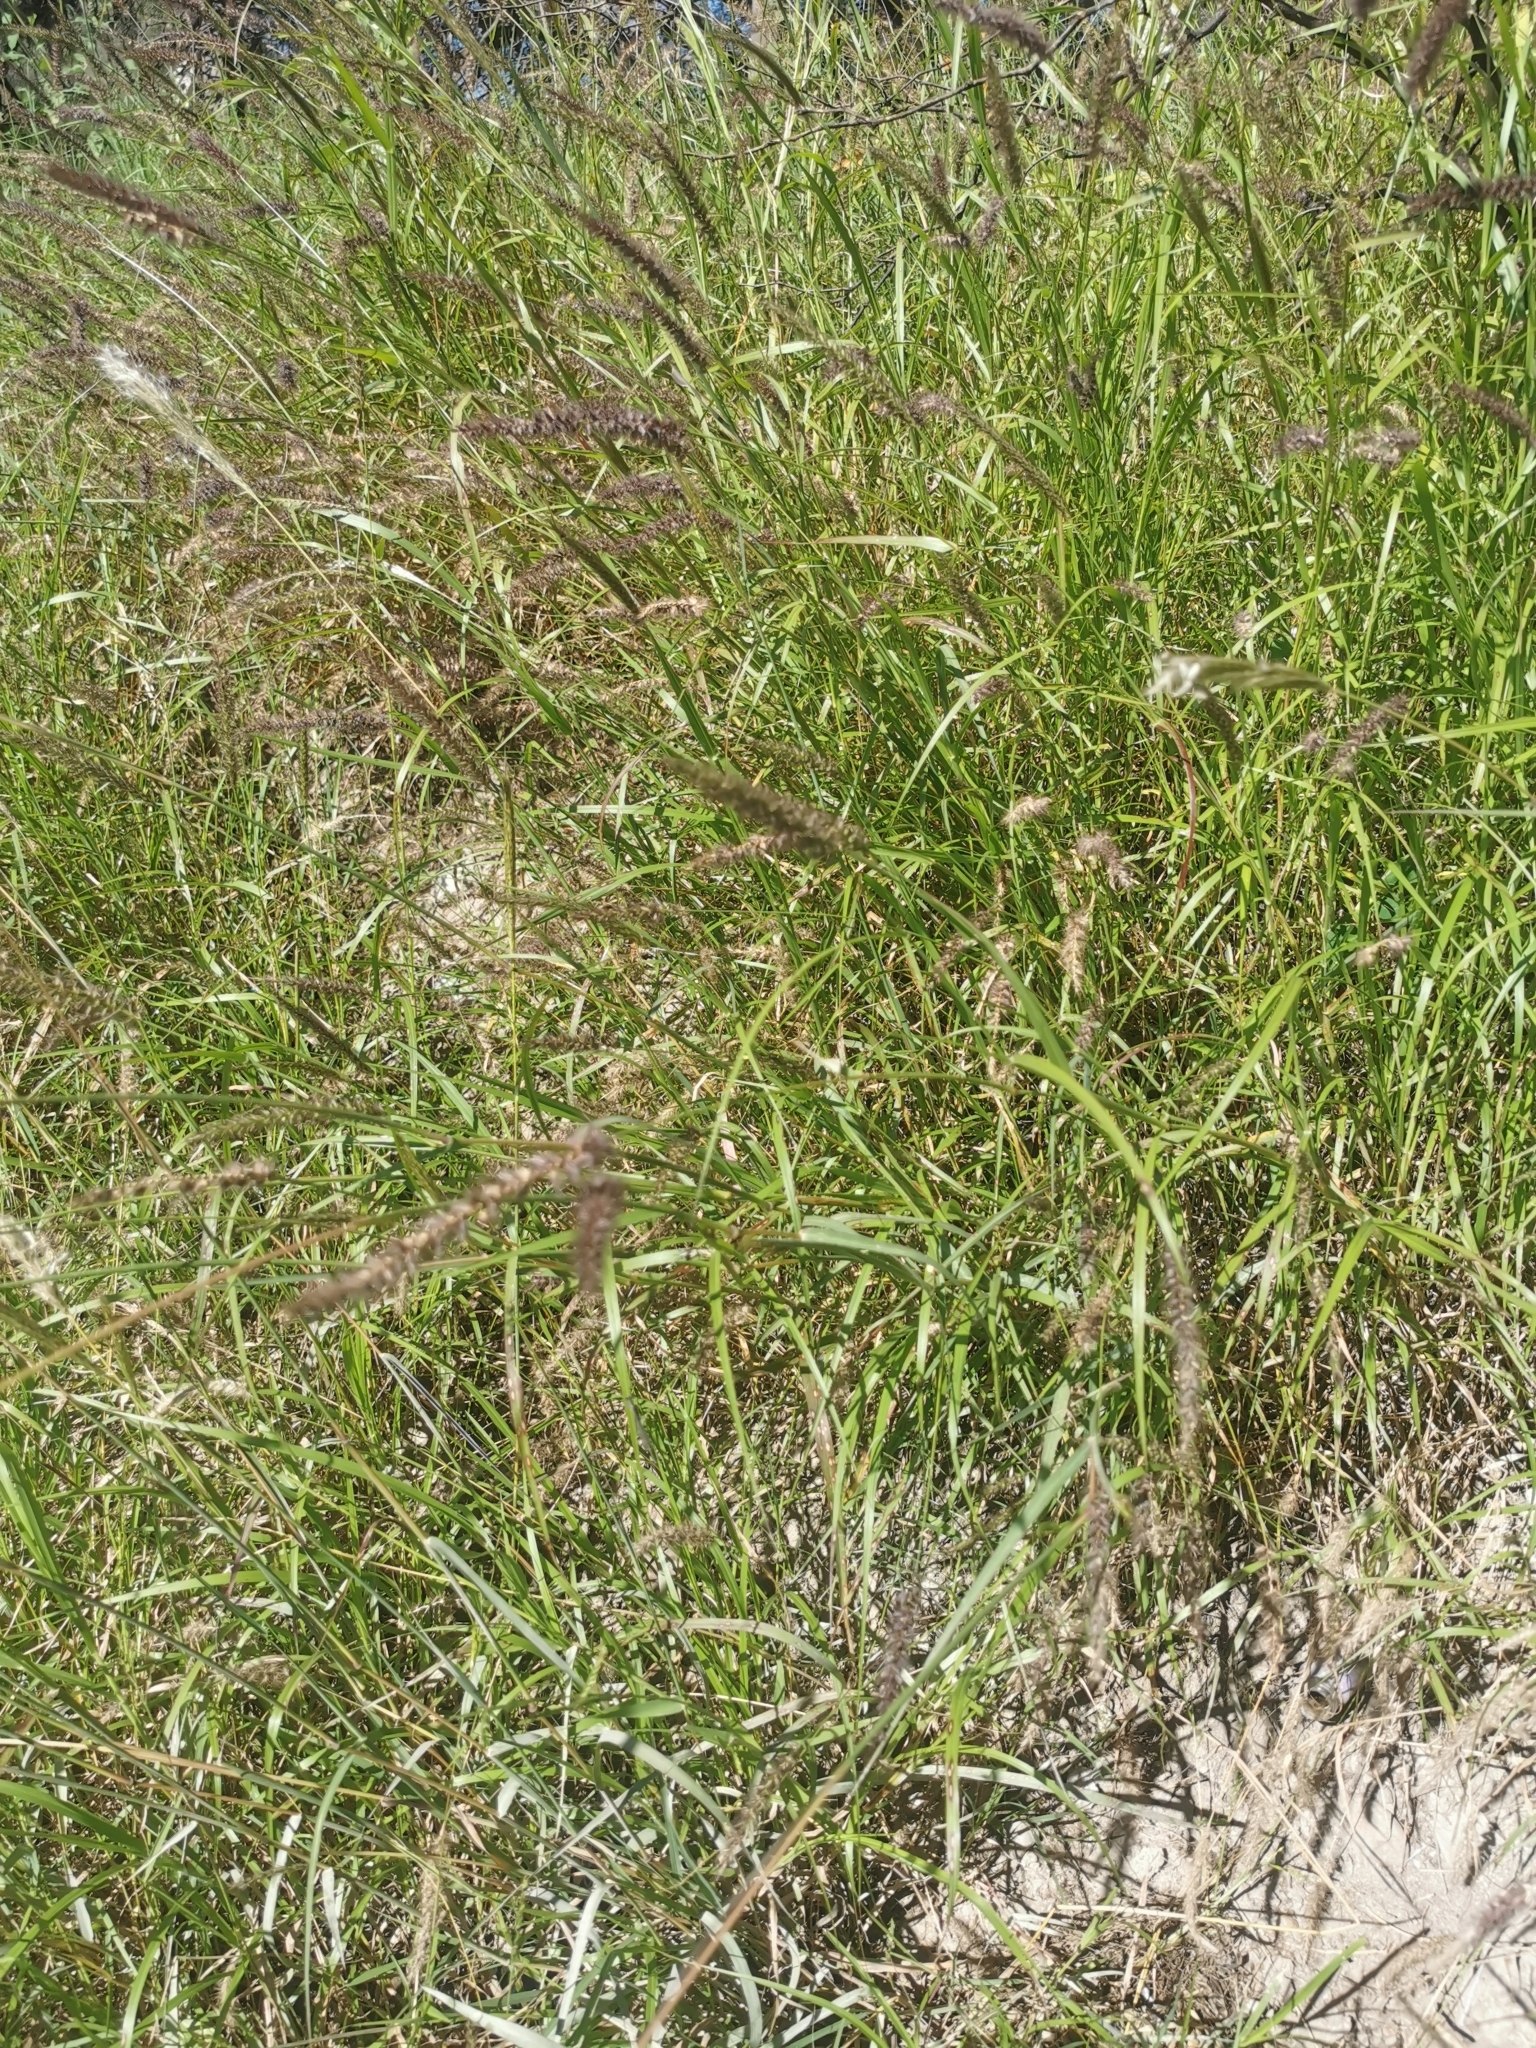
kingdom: Plantae
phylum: Tracheophyta
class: Liliopsida
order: Poales
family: Poaceae
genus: Cenchrus
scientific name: Cenchrus ciliaris
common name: Buffelgrass
